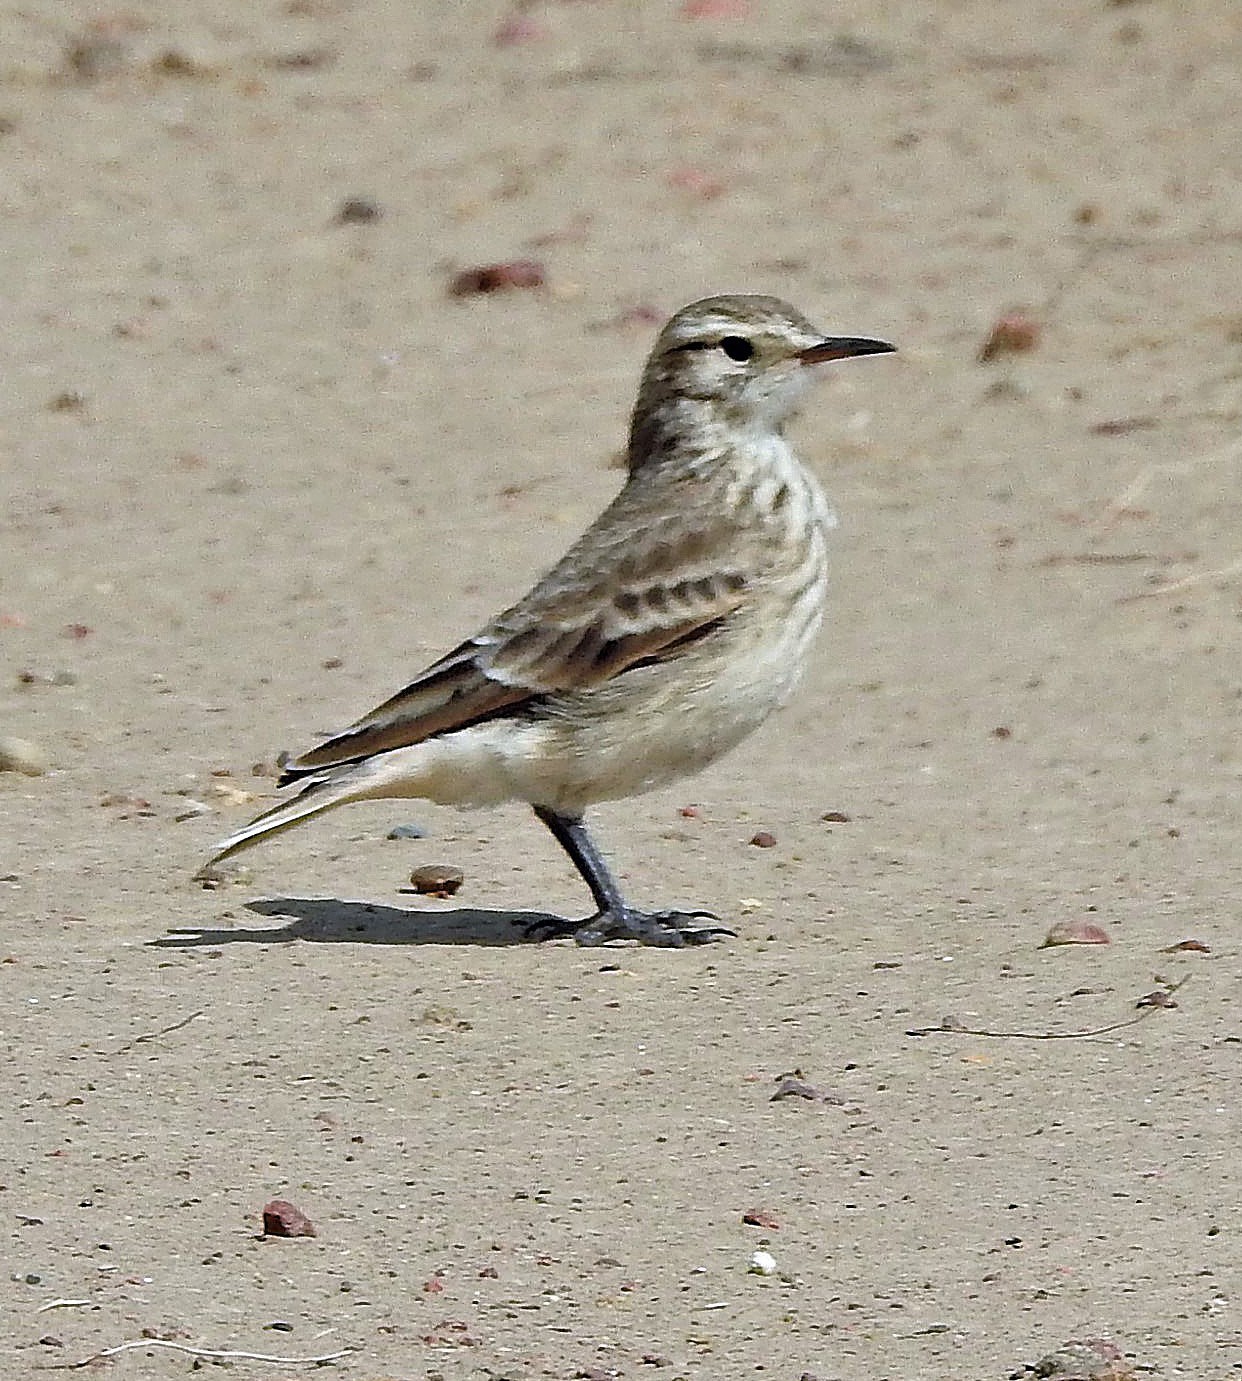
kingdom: Animalia
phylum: Chordata
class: Aves
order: Passeriformes
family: Furnariidae
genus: Geositta
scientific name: Geositta cunicularia
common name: Common miner
